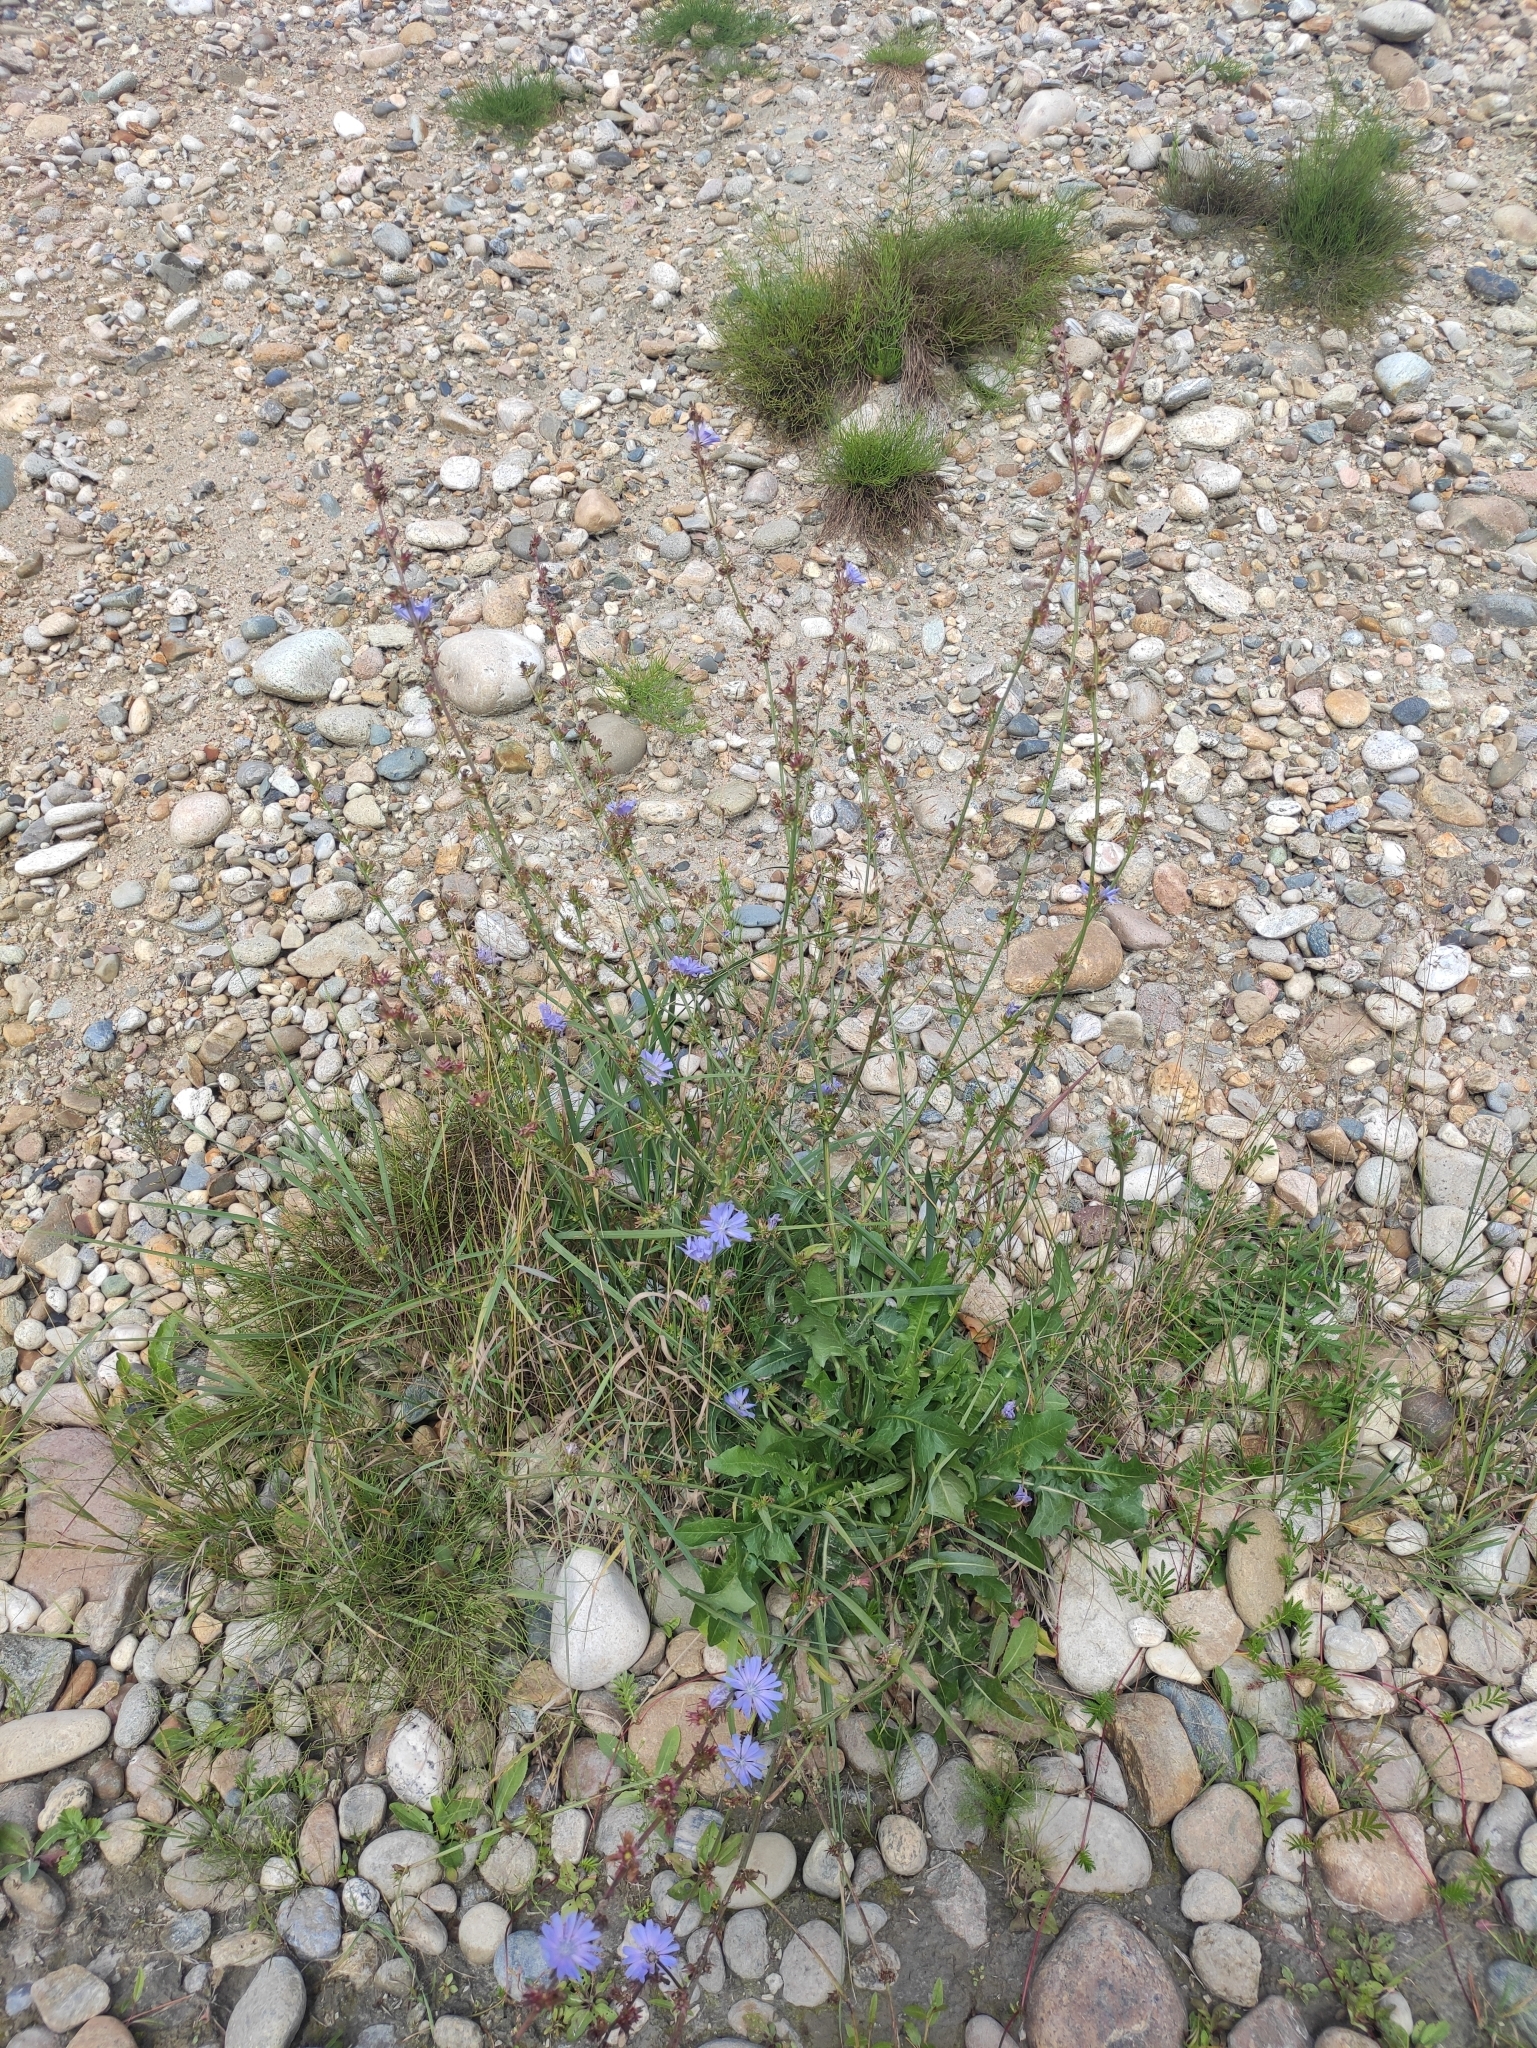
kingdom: Plantae
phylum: Tracheophyta
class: Magnoliopsida
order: Asterales
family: Asteraceae
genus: Cichorium
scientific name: Cichorium intybus
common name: Chicory
